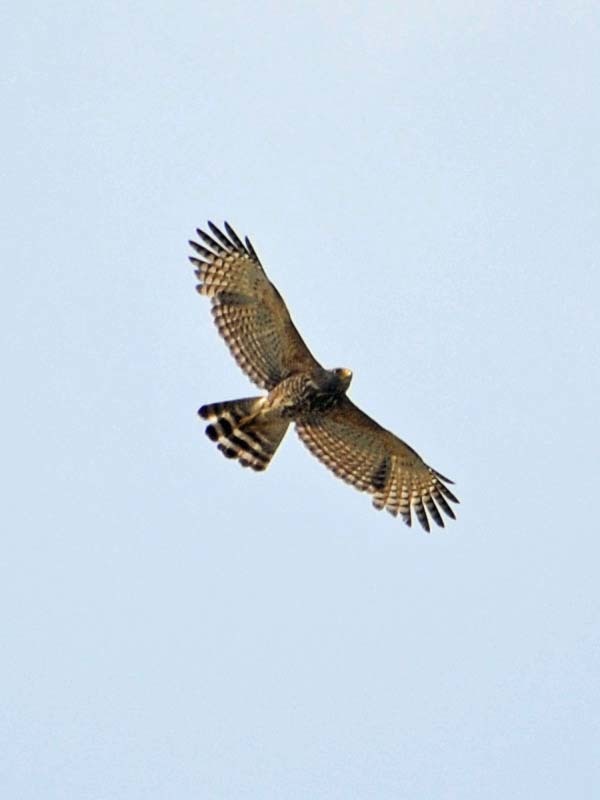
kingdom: Animalia
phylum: Chordata
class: Aves
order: Accipitriformes
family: Accipitridae
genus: Rupornis
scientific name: Rupornis magnirostris
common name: Roadside hawk
